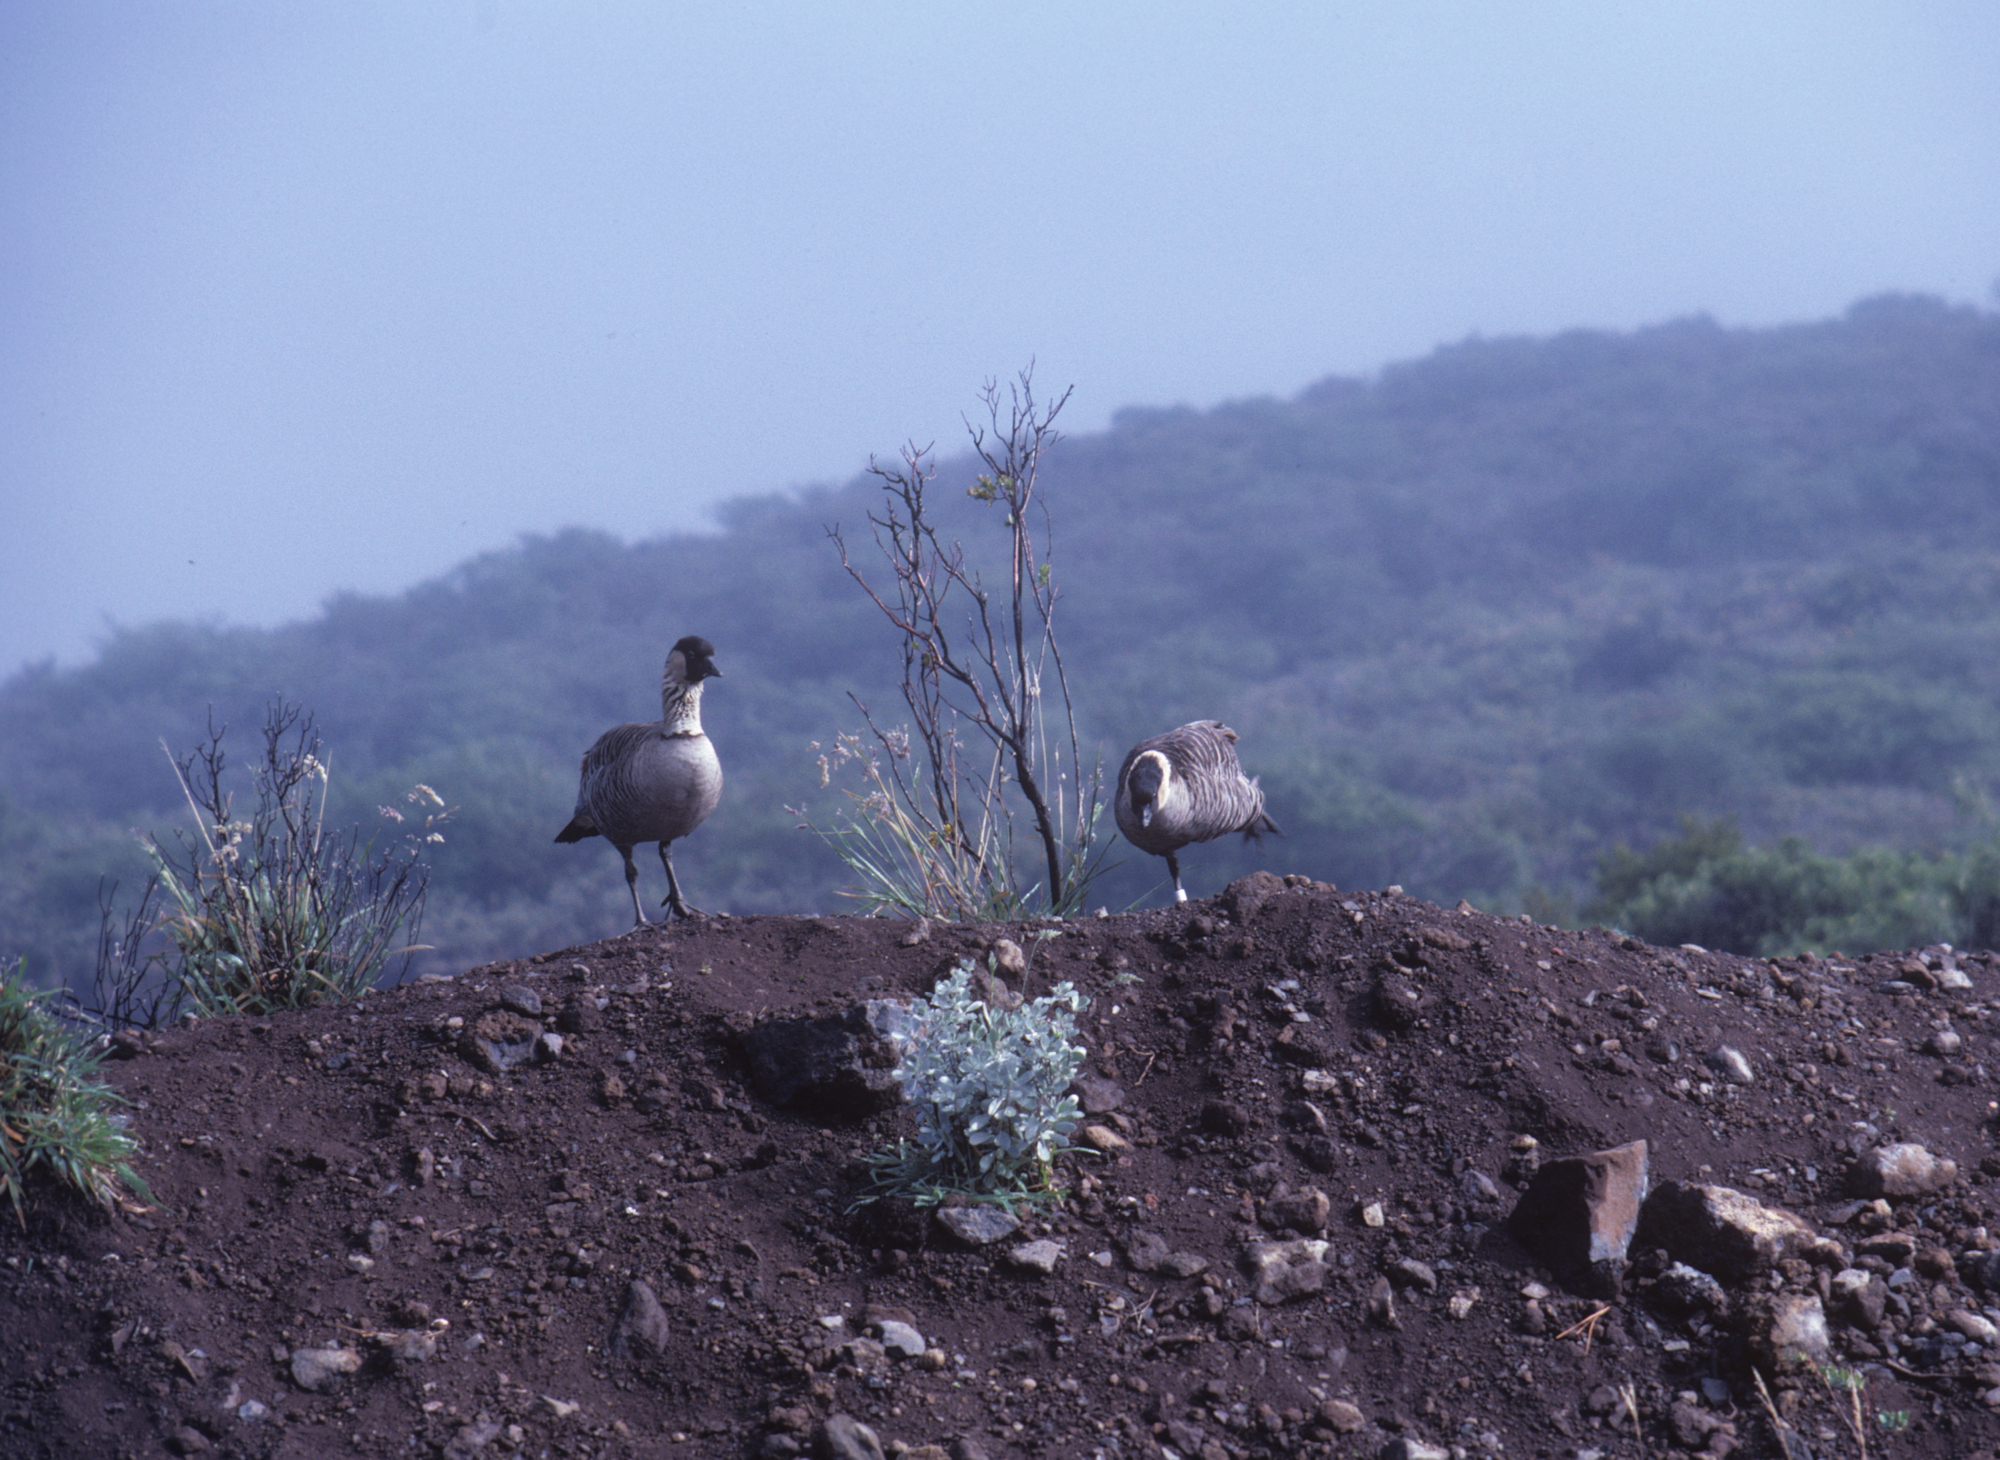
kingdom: Animalia
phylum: Chordata
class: Aves
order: Anseriformes
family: Anatidae
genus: Branta
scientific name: Branta sandvicensis
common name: Nene
